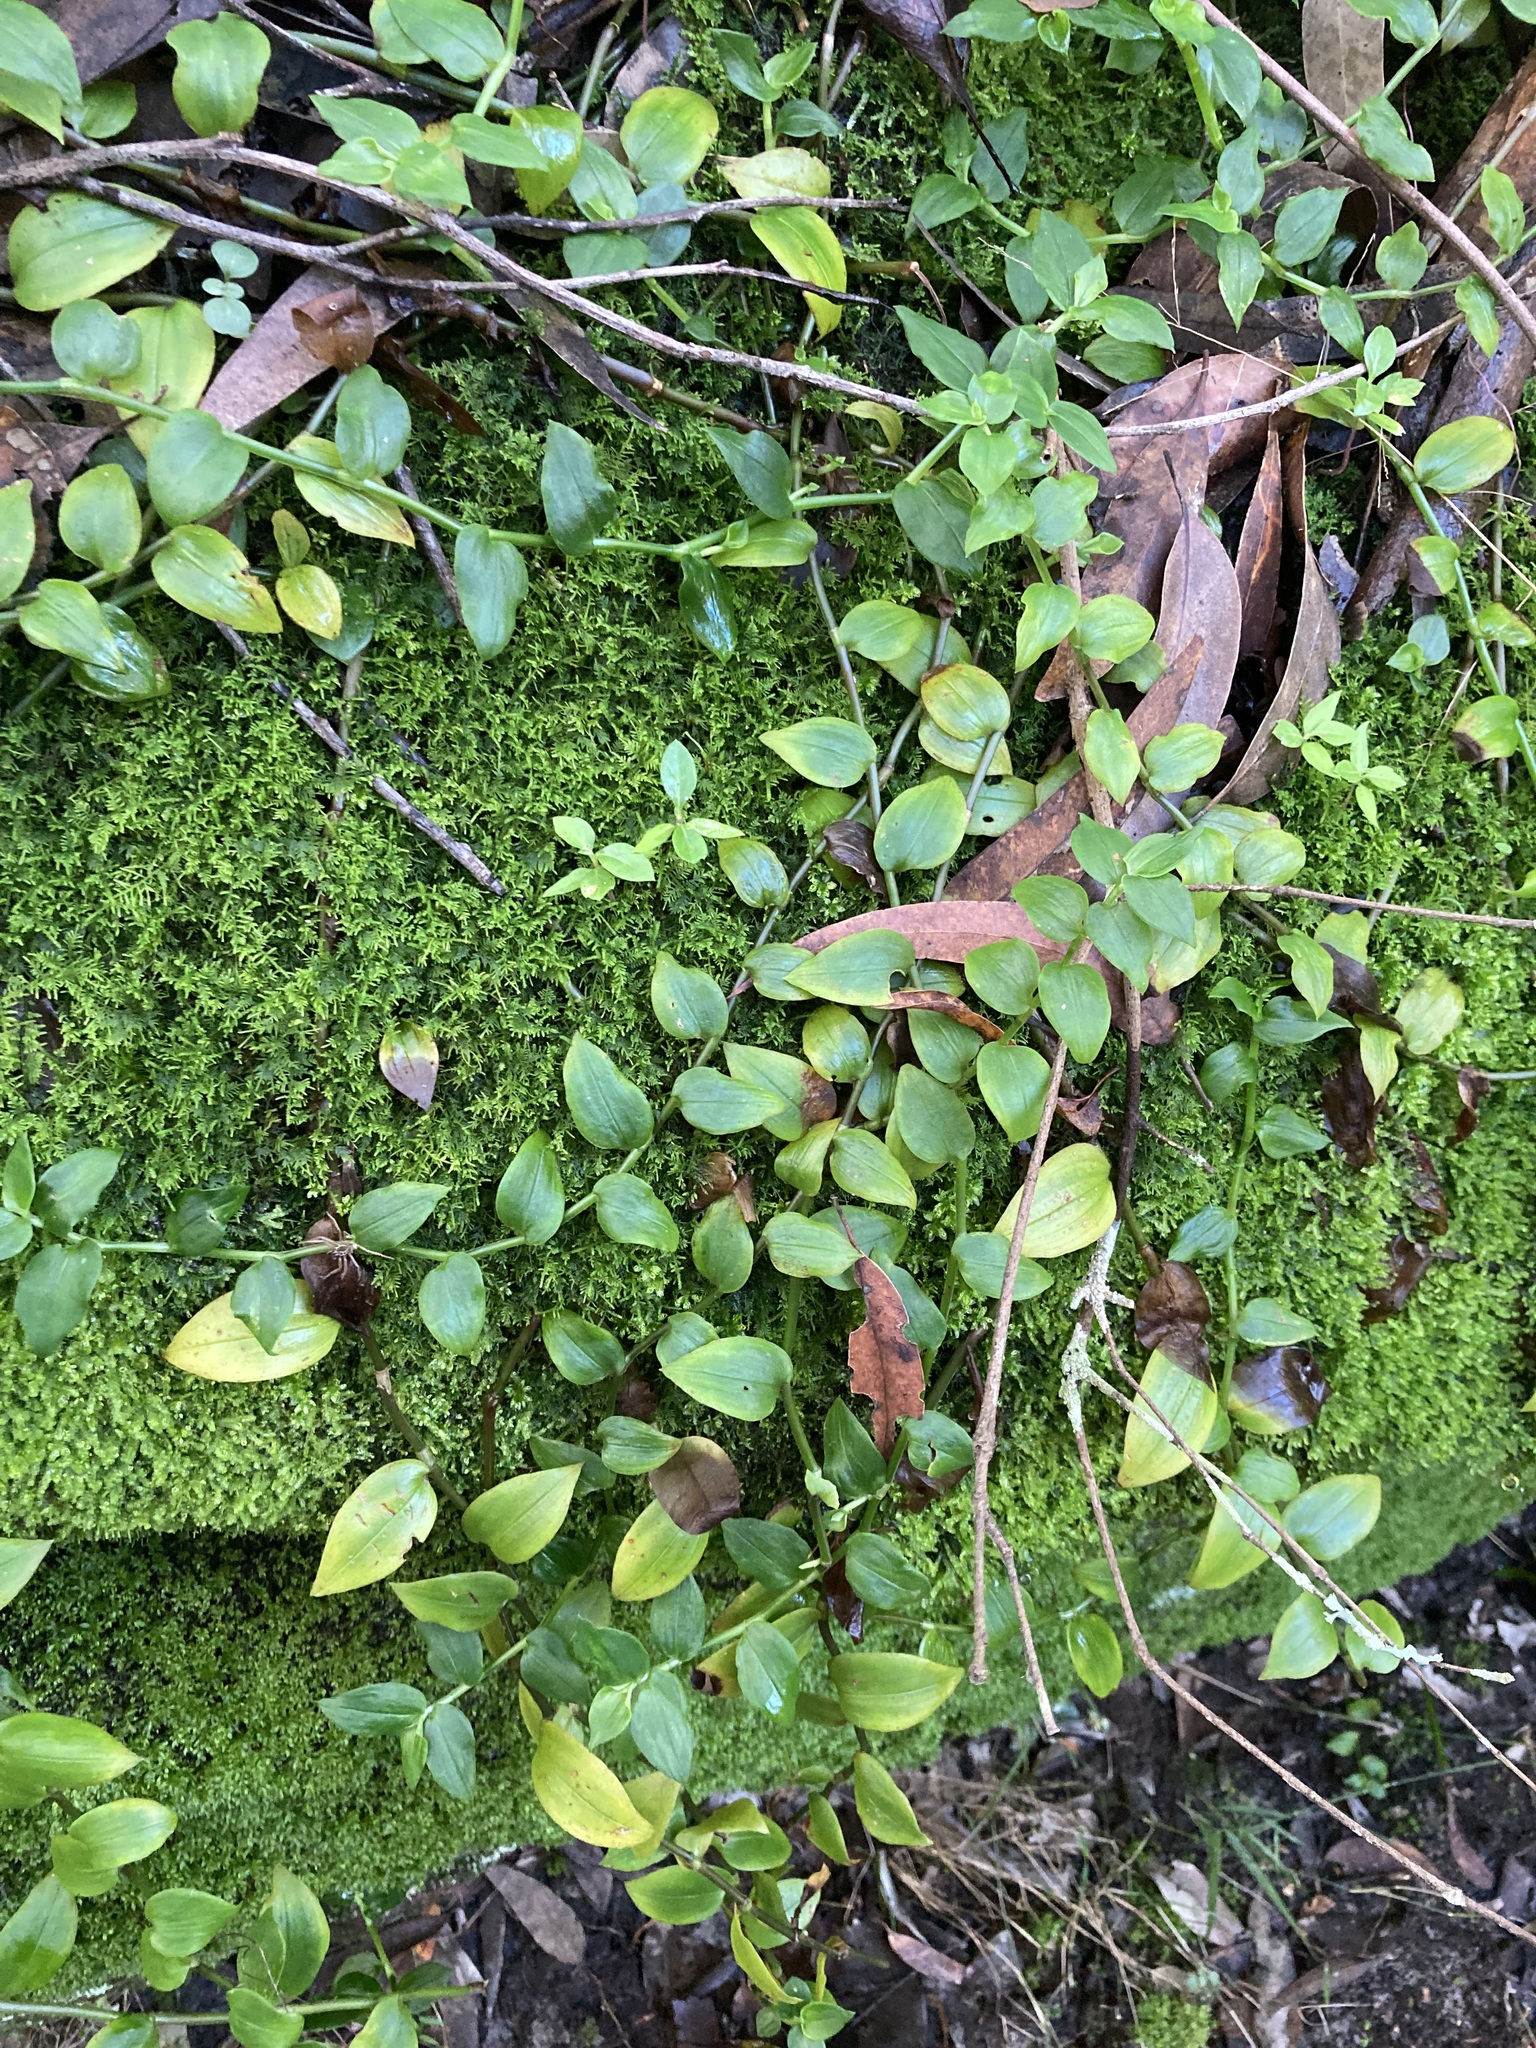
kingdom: Plantae
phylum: Tracheophyta
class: Liliopsida
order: Commelinales
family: Commelinaceae
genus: Tradescantia
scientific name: Tradescantia fluminensis
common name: Wandering-jew
